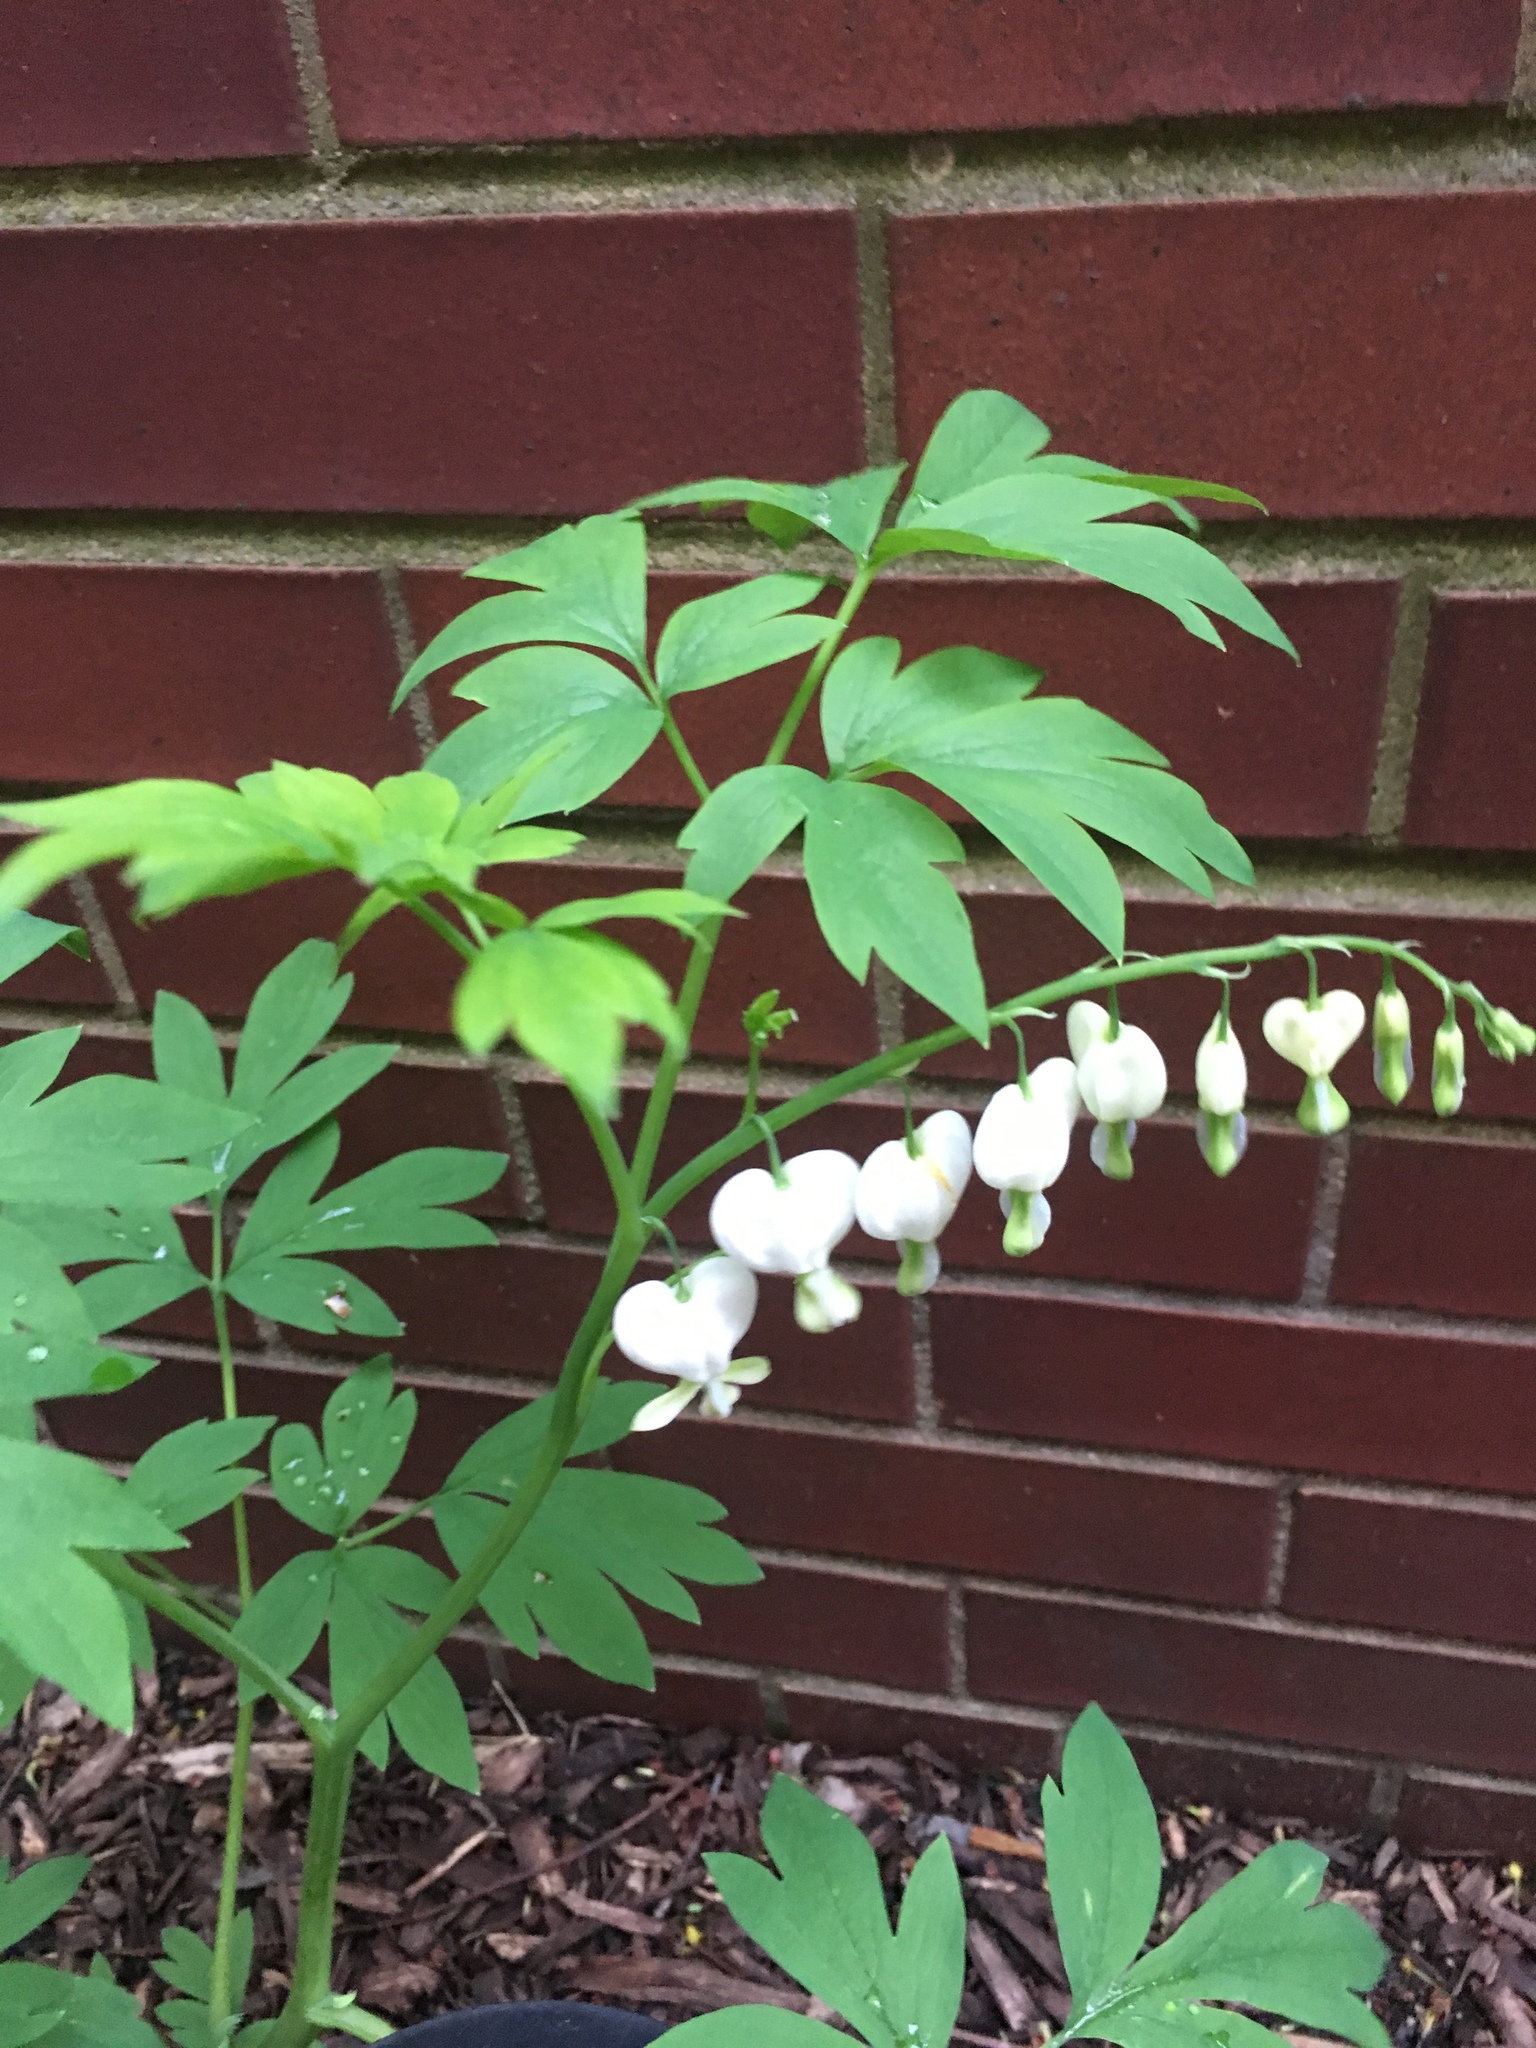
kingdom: Plantae
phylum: Tracheophyta
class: Magnoliopsida
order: Ranunculales
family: Papaveraceae
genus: Lamprocapnos
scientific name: Lamprocapnos spectabilis
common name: Asian bleeding-heart
